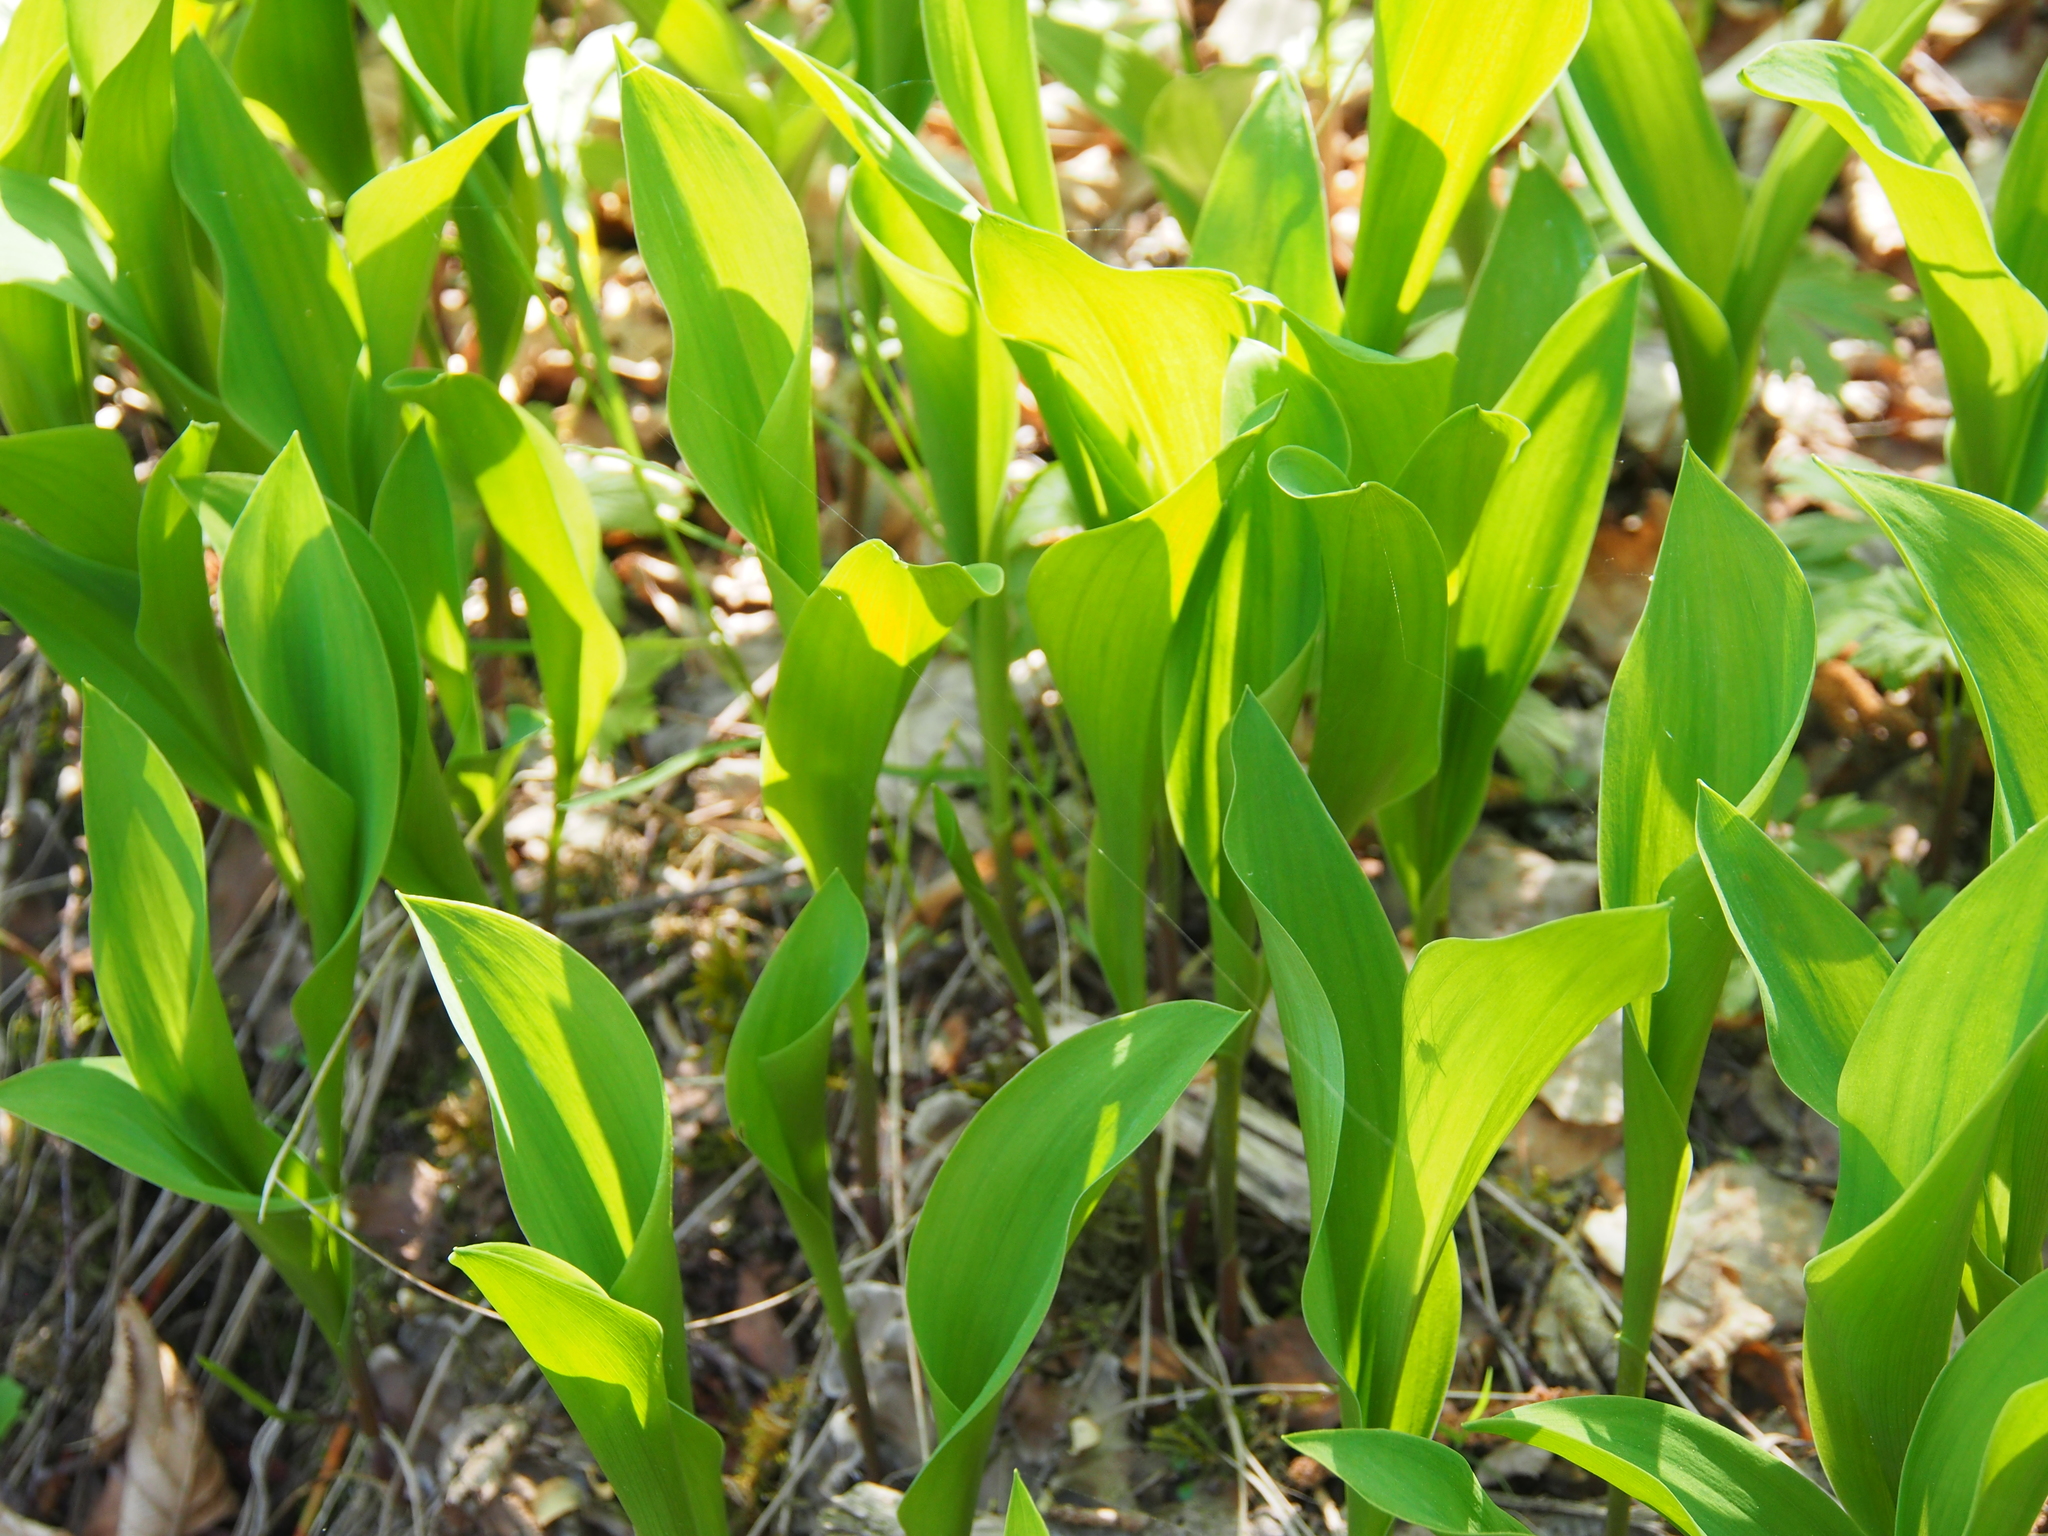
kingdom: Plantae
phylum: Tracheophyta
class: Liliopsida
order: Asparagales
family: Asparagaceae
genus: Convallaria
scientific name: Convallaria majalis
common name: Lily-of-the-valley
